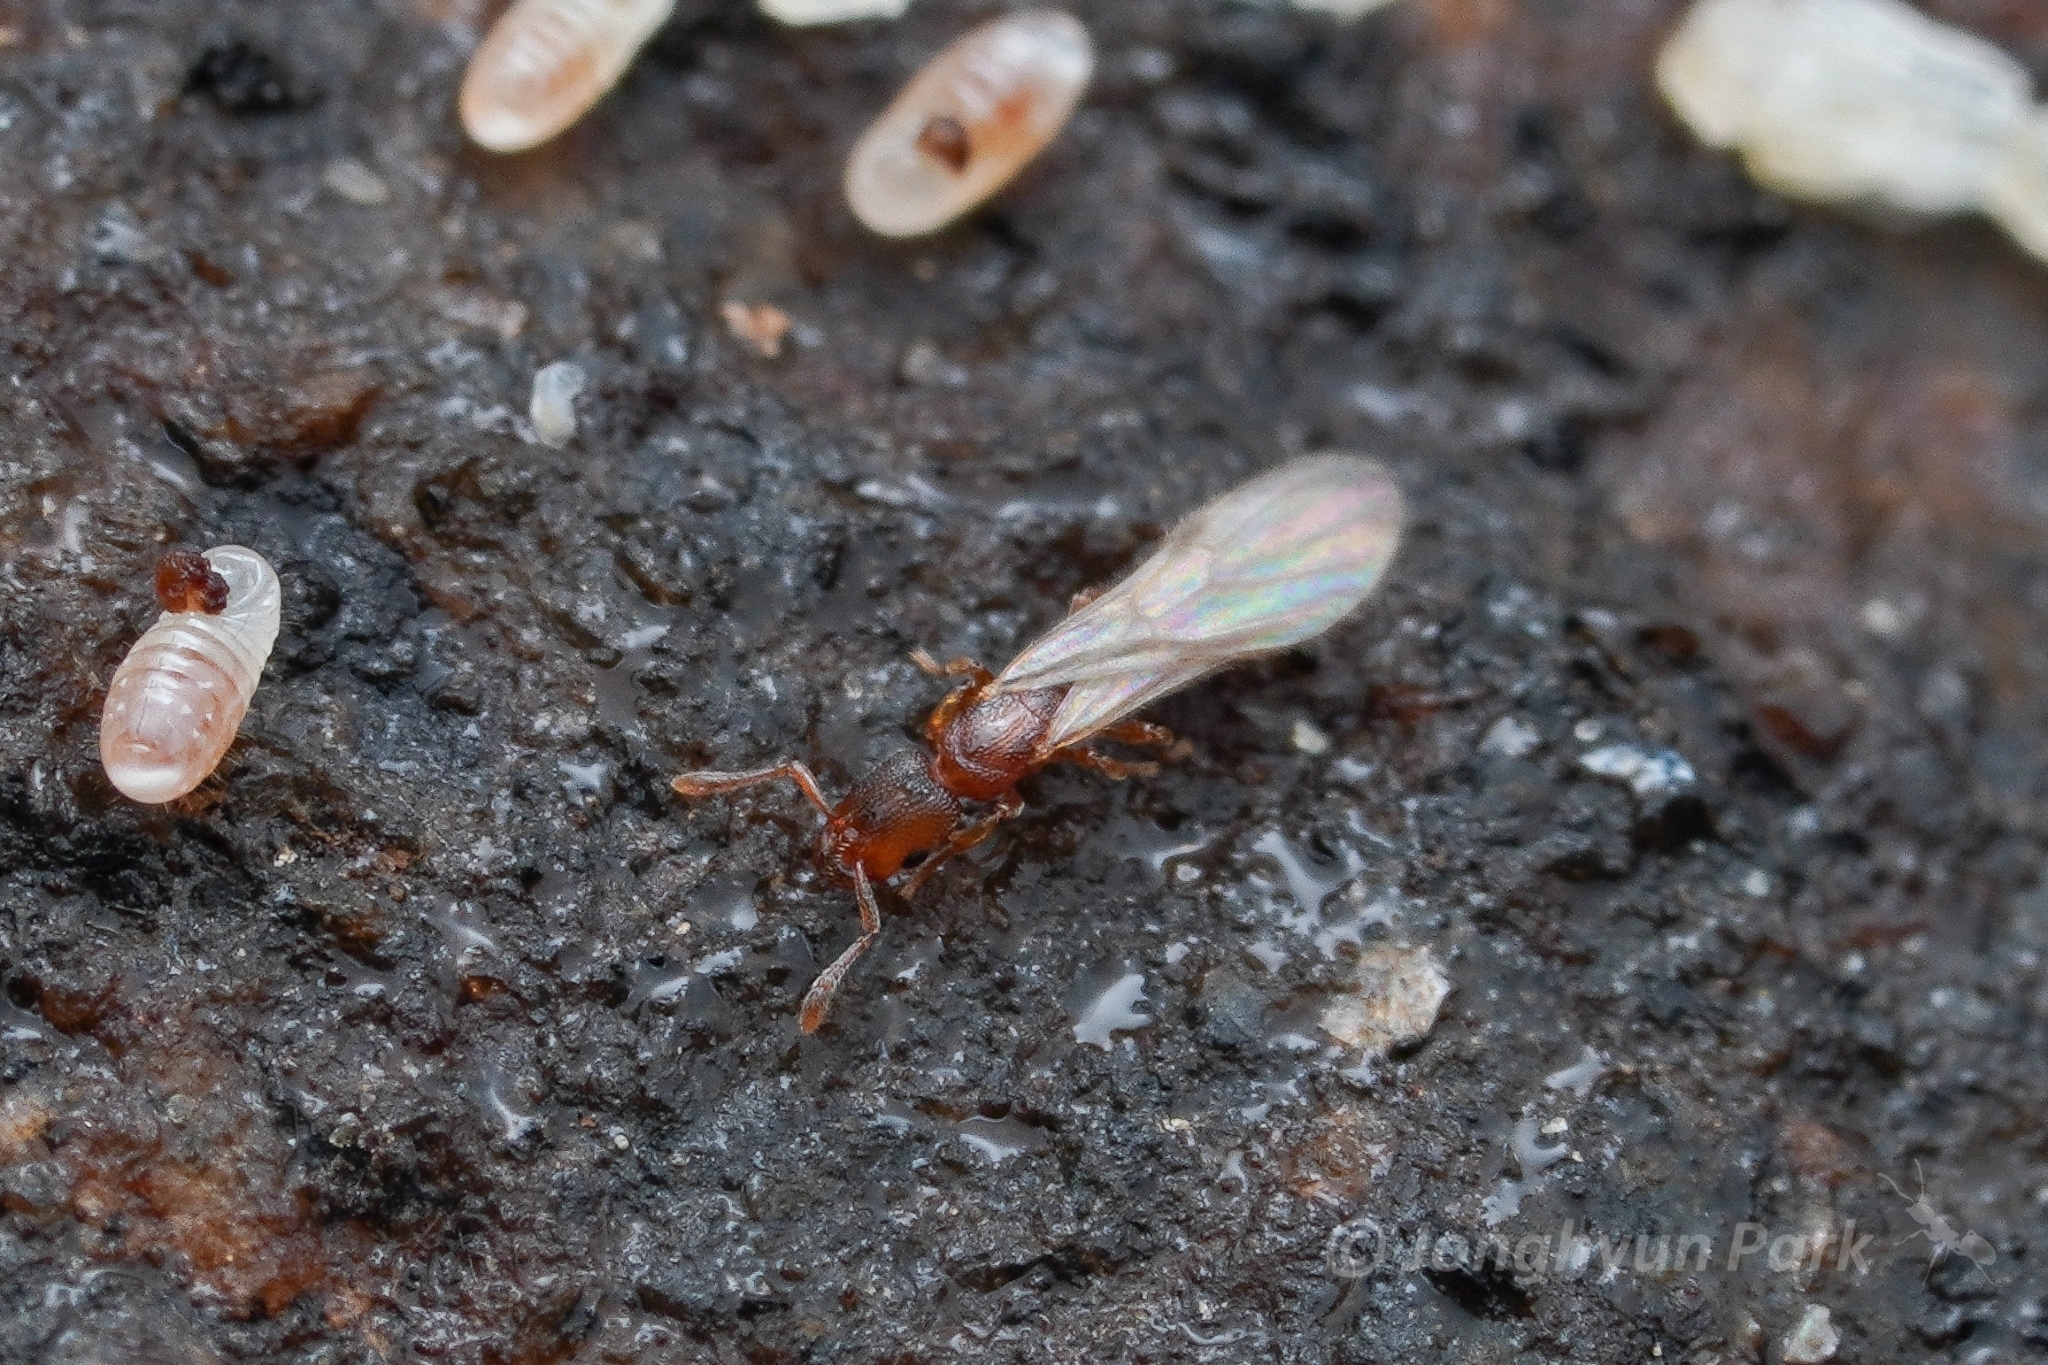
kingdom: Animalia
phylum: Arthropoda
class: Insecta
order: Hymenoptera
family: Formicidae
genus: Vollenhovia
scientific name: Vollenhovia nipponica
